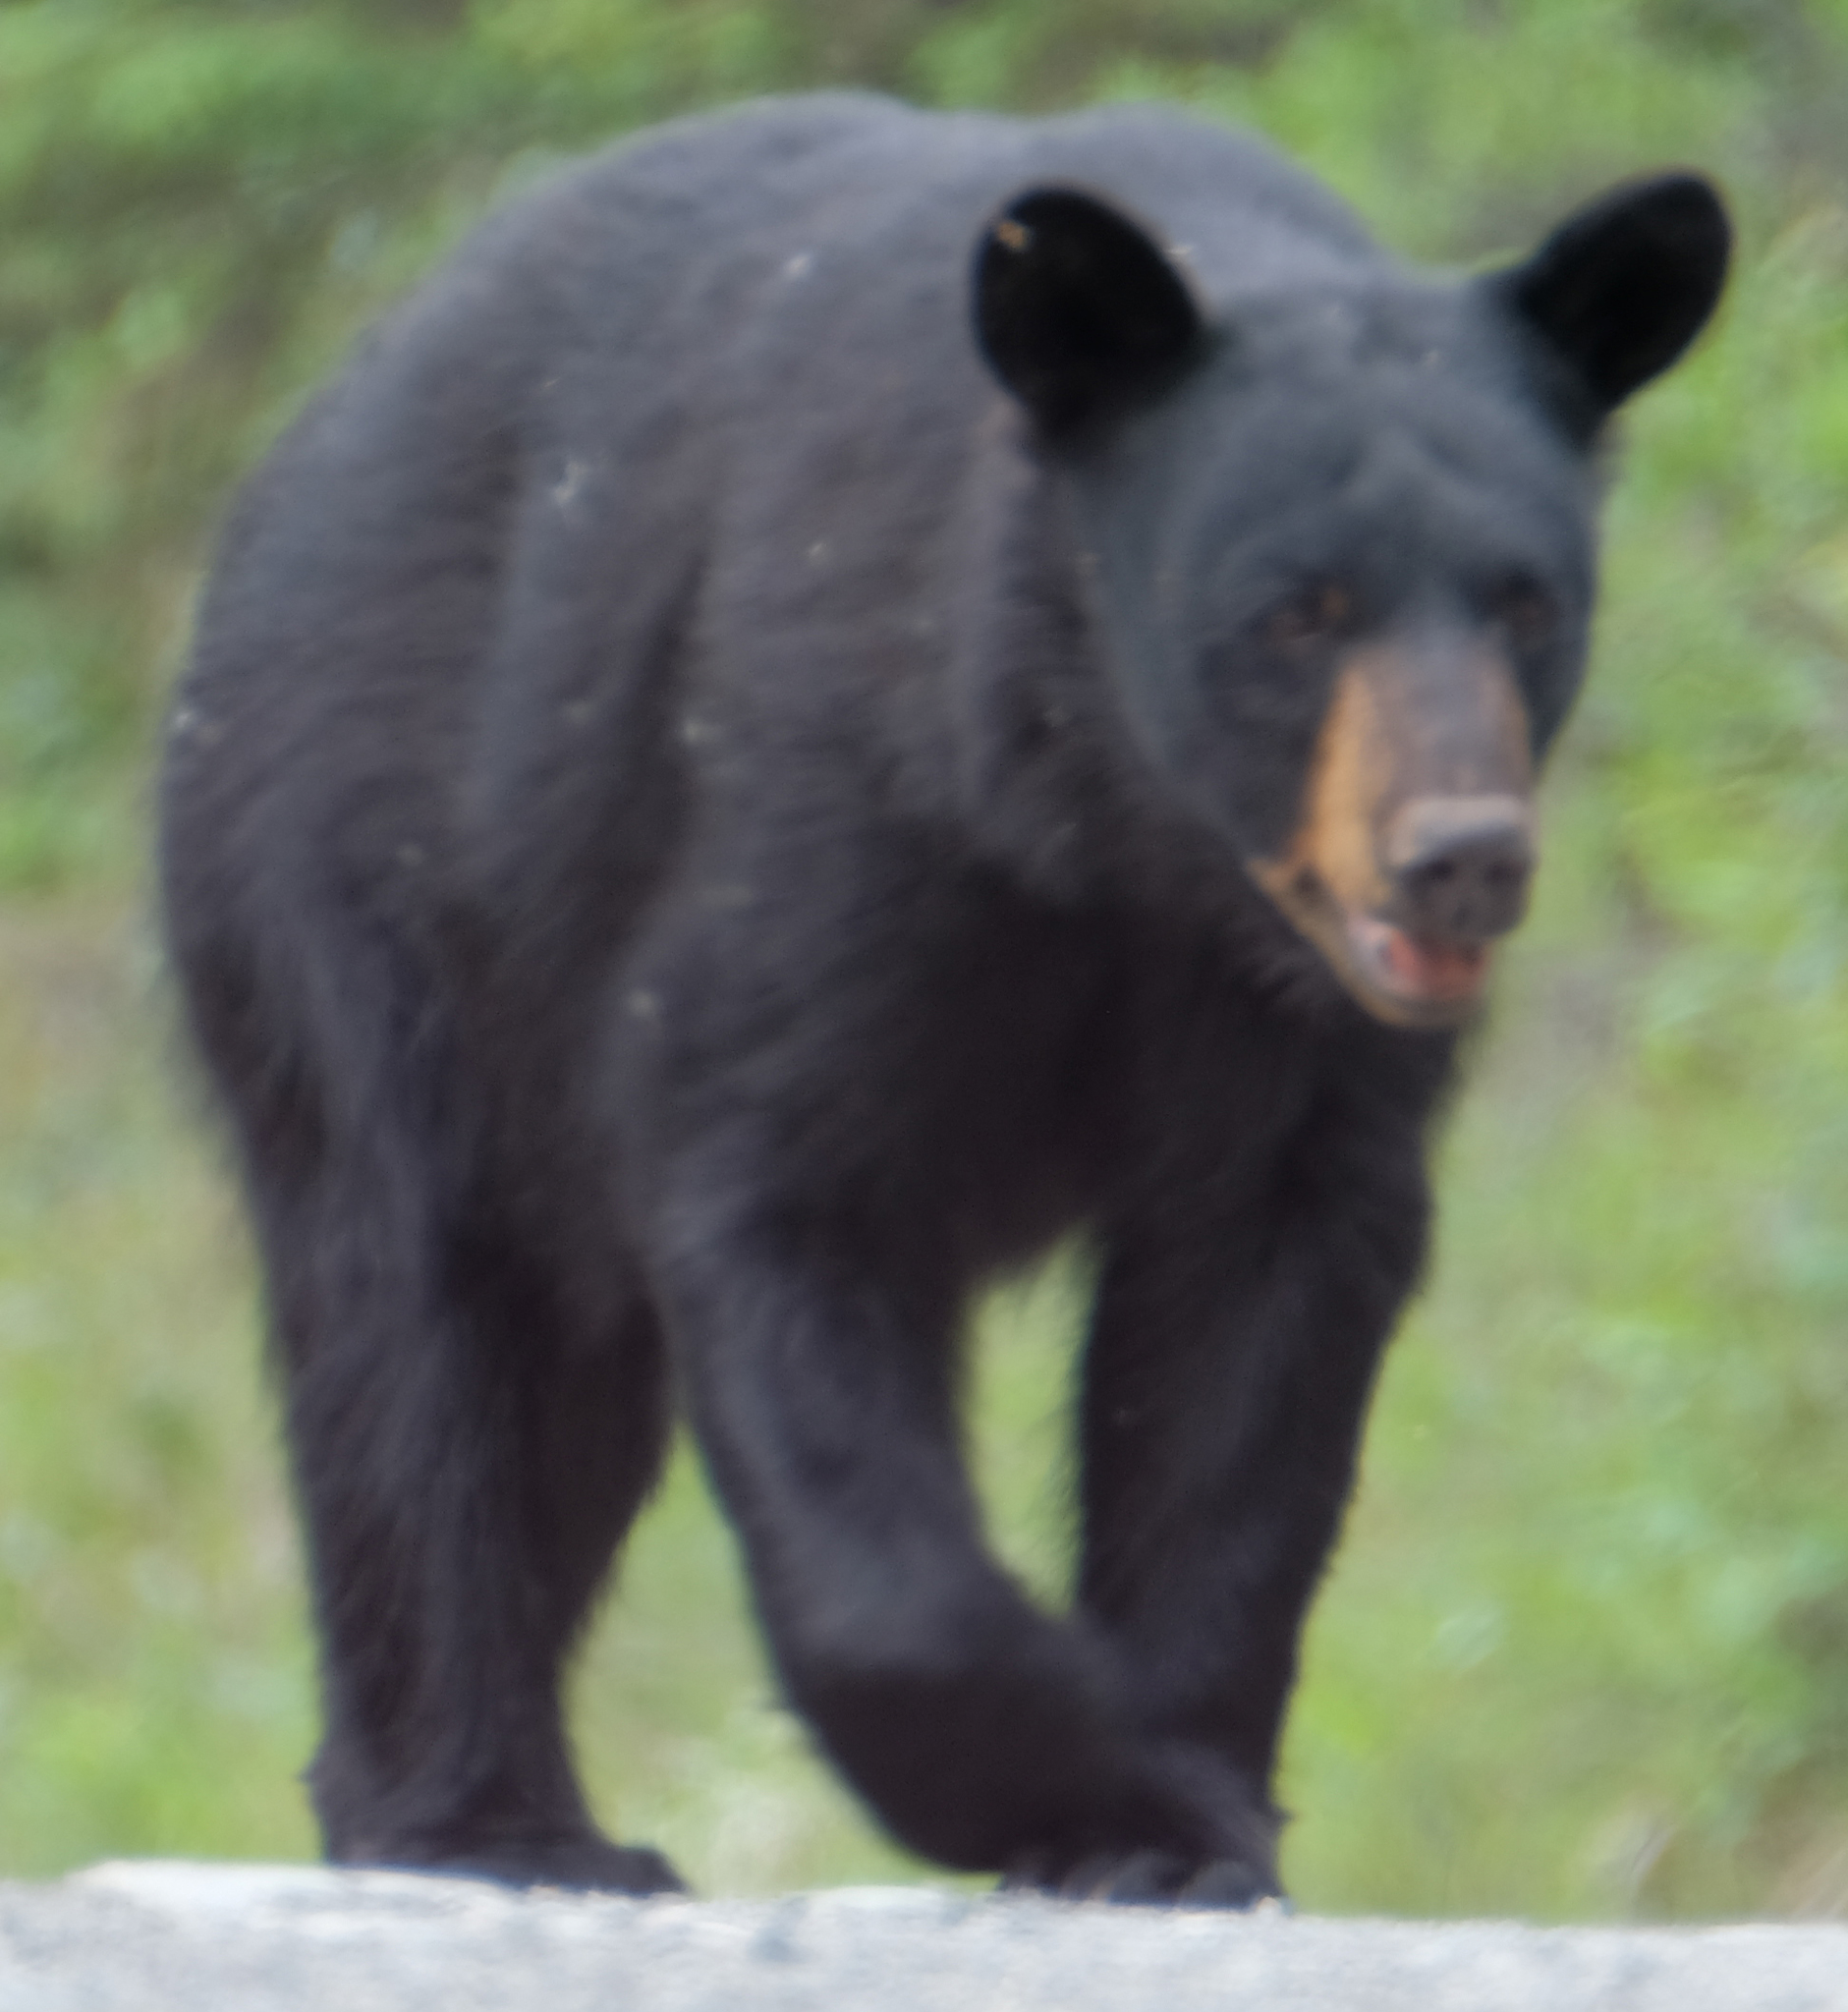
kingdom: Animalia
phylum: Chordata
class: Mammalia
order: Carnivora
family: Ursidae
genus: Ursus
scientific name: Ursus americanus
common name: American black bear
